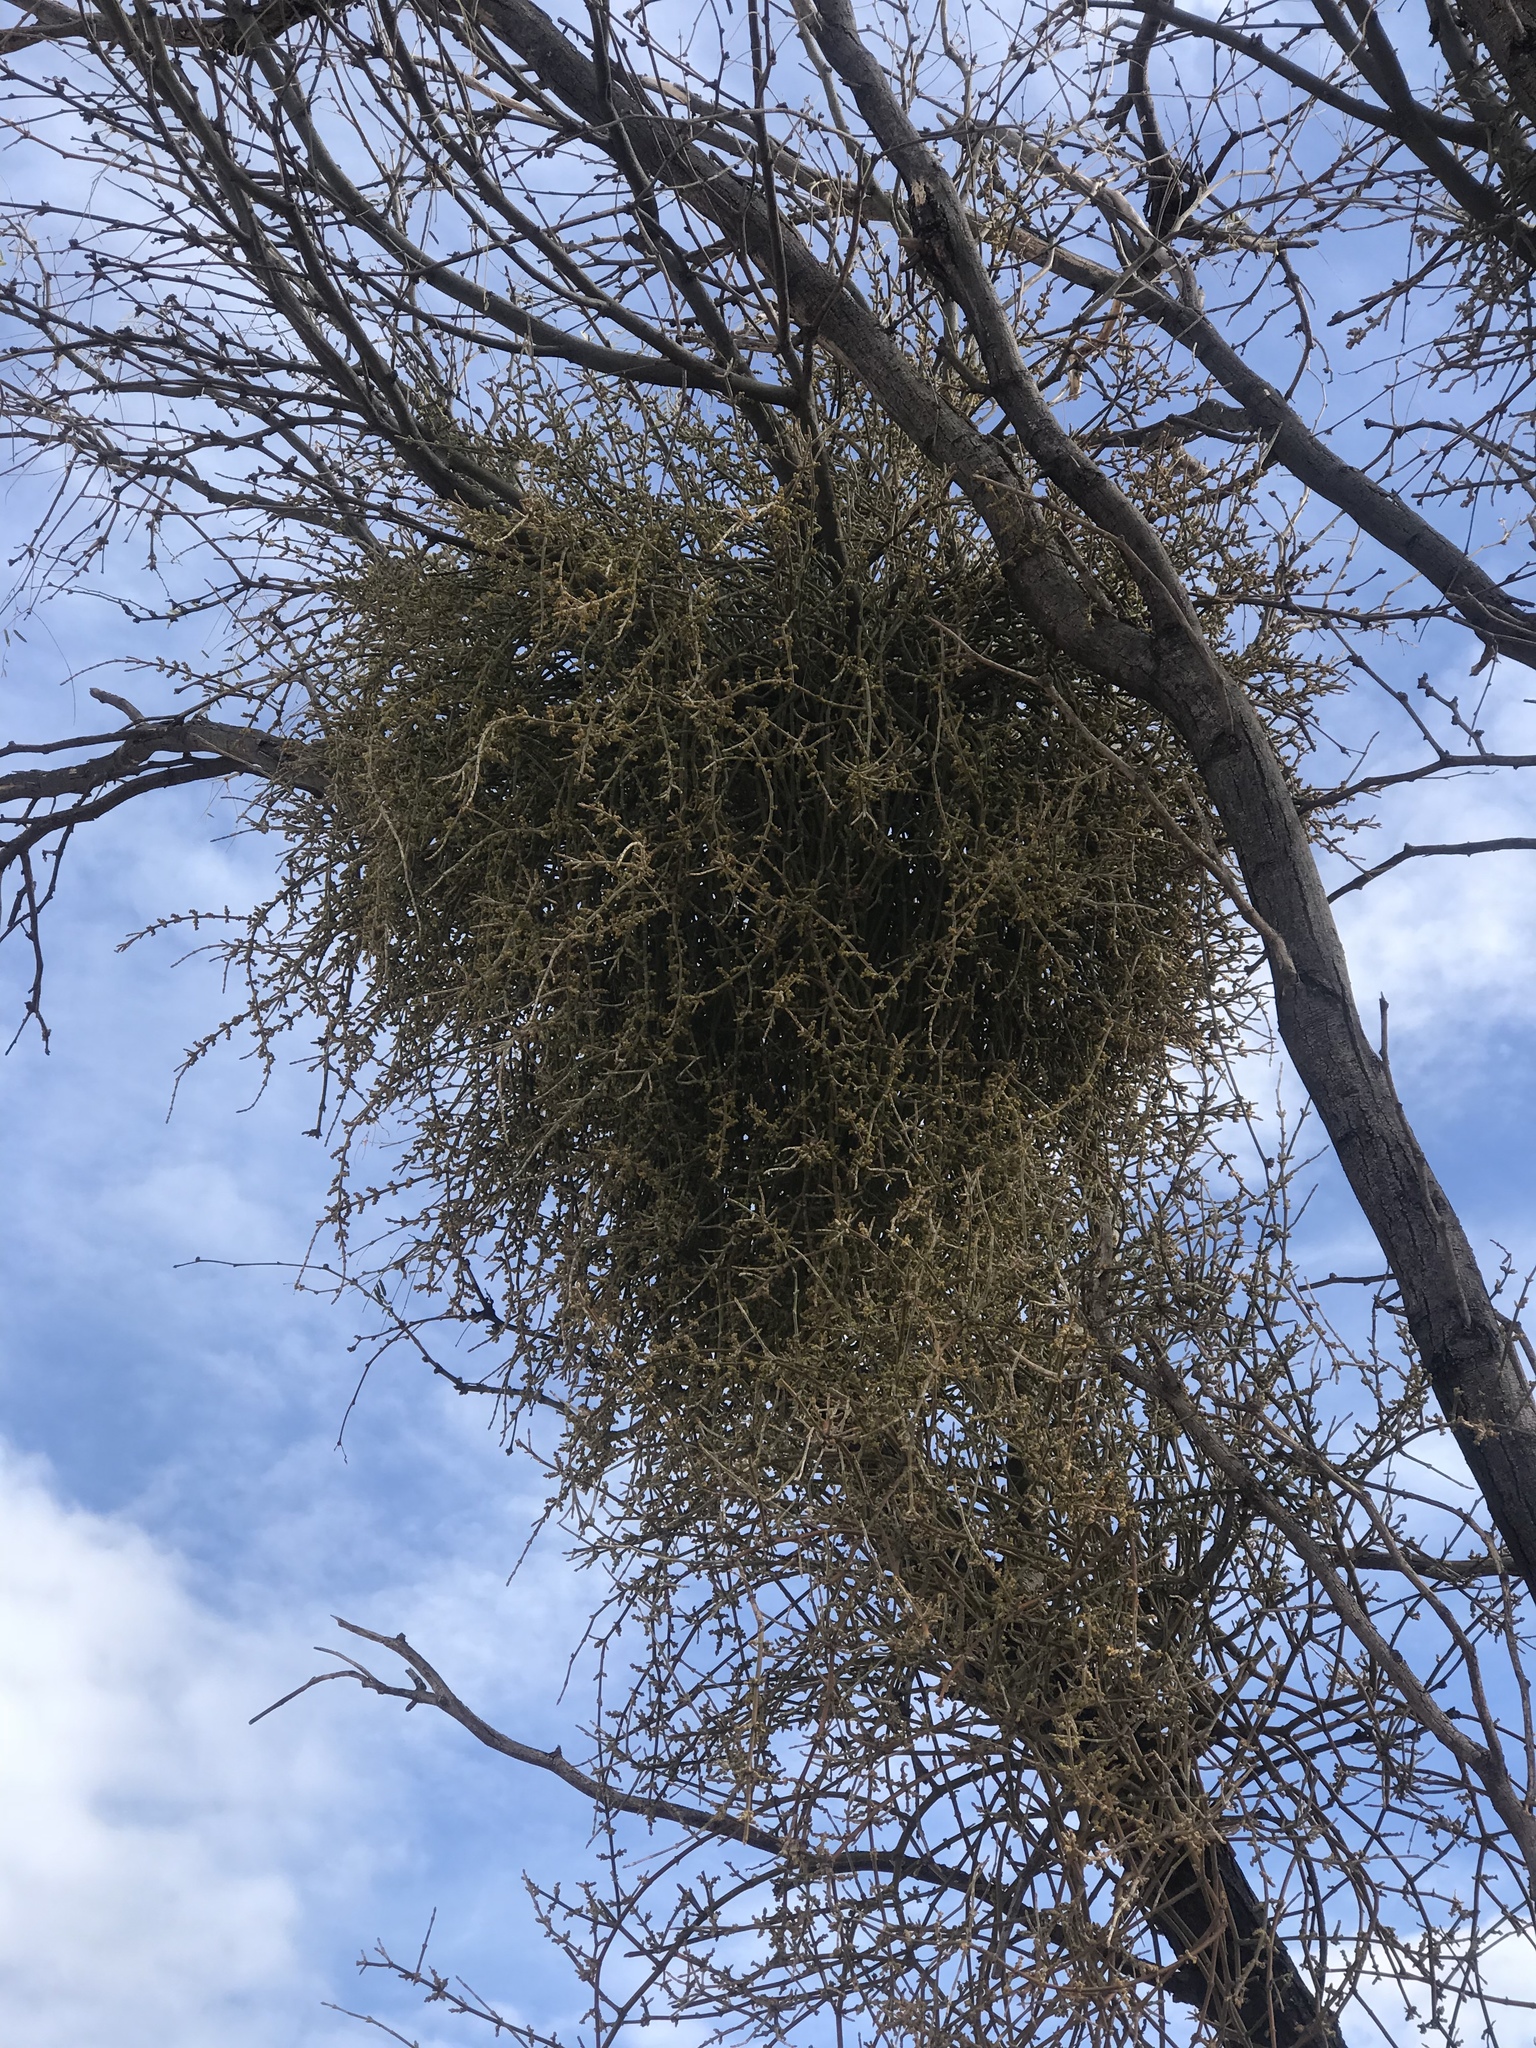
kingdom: Plantae
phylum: Tracheophyta
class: Magnoliopsida
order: Santalales
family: Viscaceae
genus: Phoradendron
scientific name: Phoradendron californicum
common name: Acacia mistletoe
